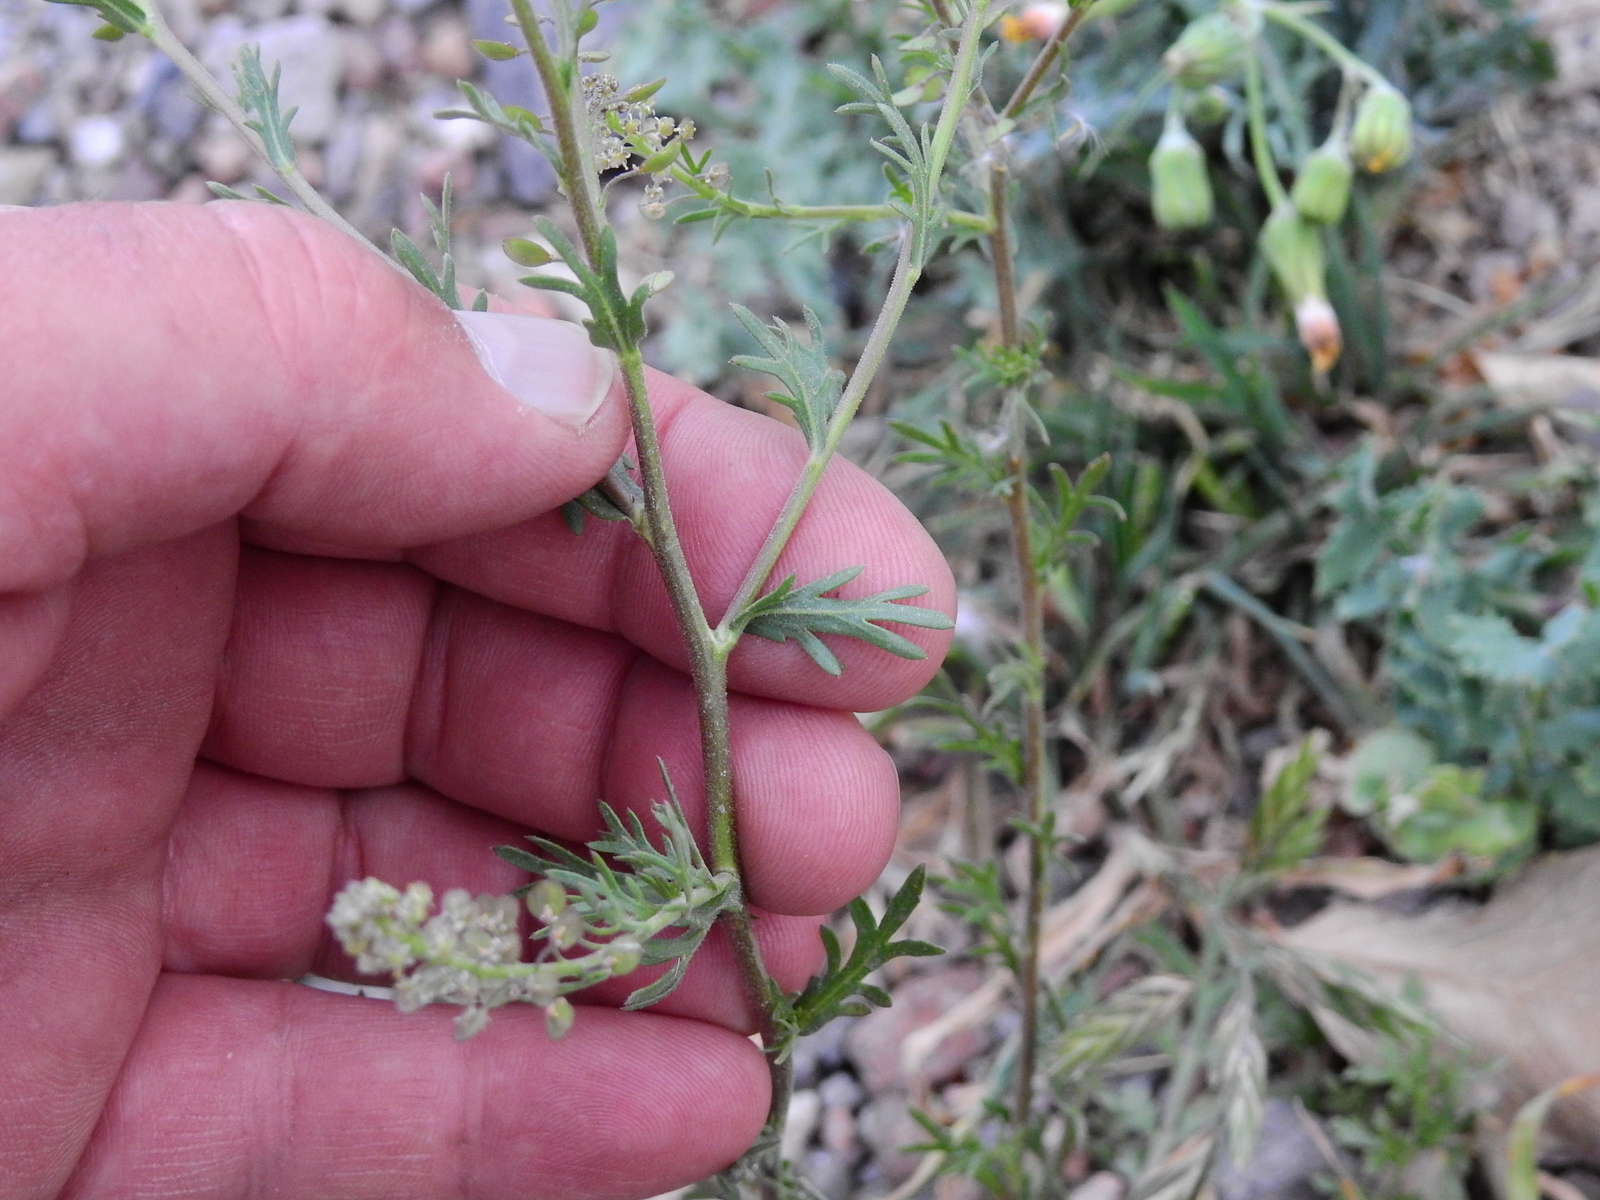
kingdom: Plantae
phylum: Tracheophyta
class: Magnoliopsida
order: Brassicales
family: Brassicaceae
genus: Lepidium
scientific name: Lepidium bonariense
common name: Argentine pepperwort
